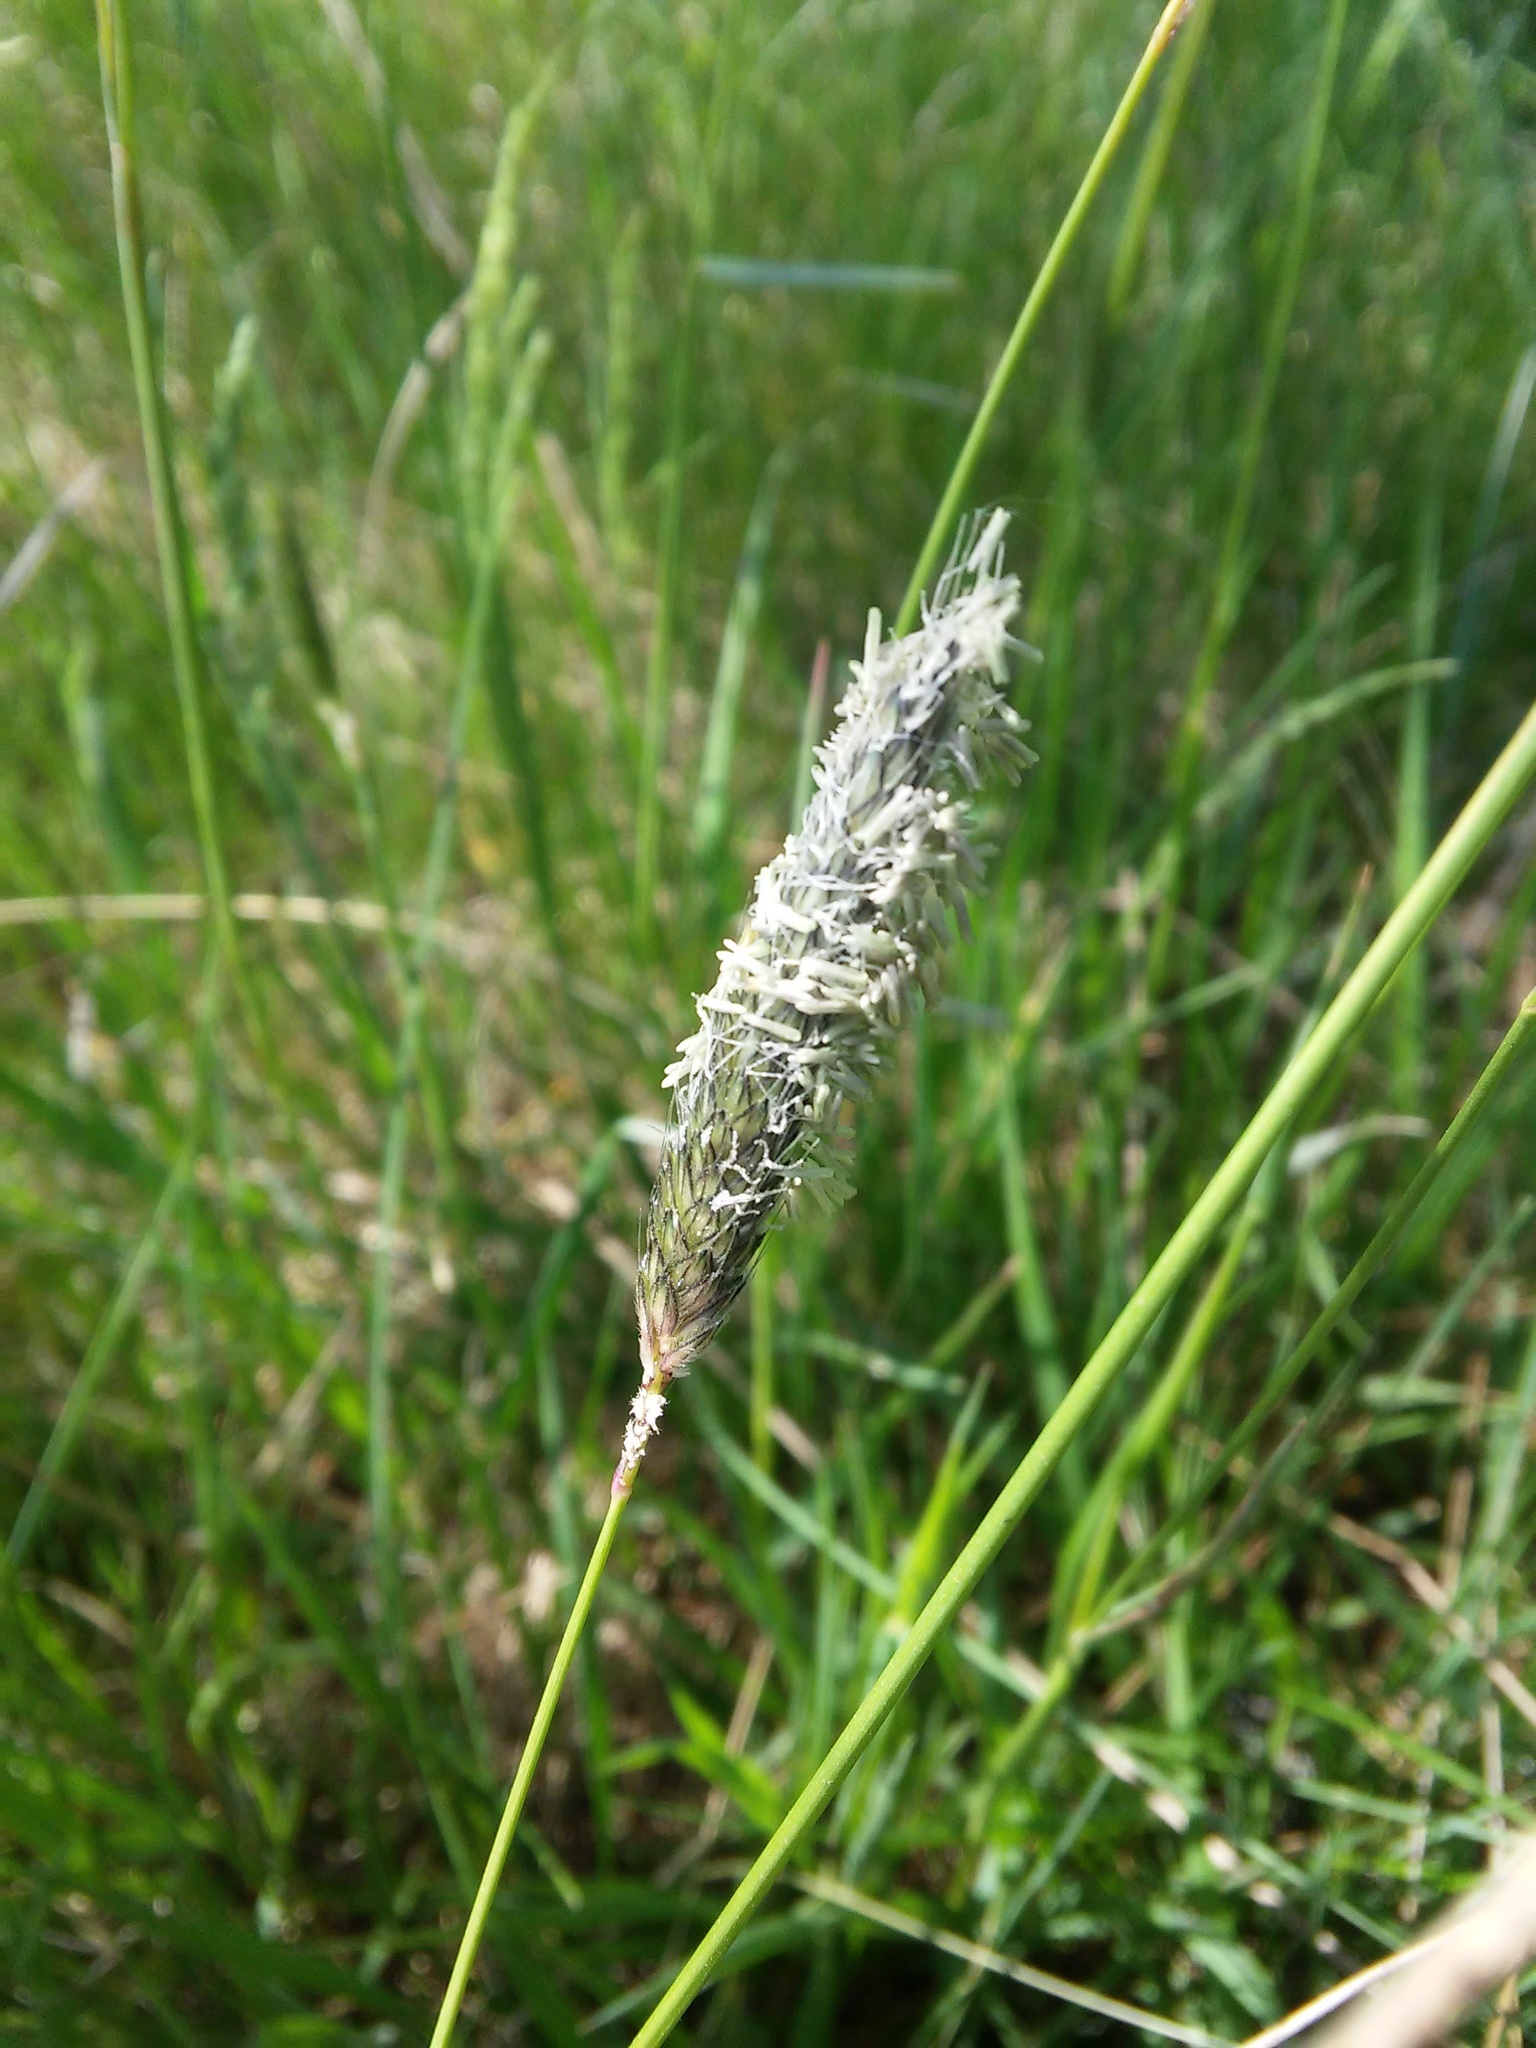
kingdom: Plantae
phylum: Tracheophyta
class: Liliopsida
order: Poales
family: Poaceae
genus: Alopecurus
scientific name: Alopecurus pratensis
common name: Meadow foxtail
